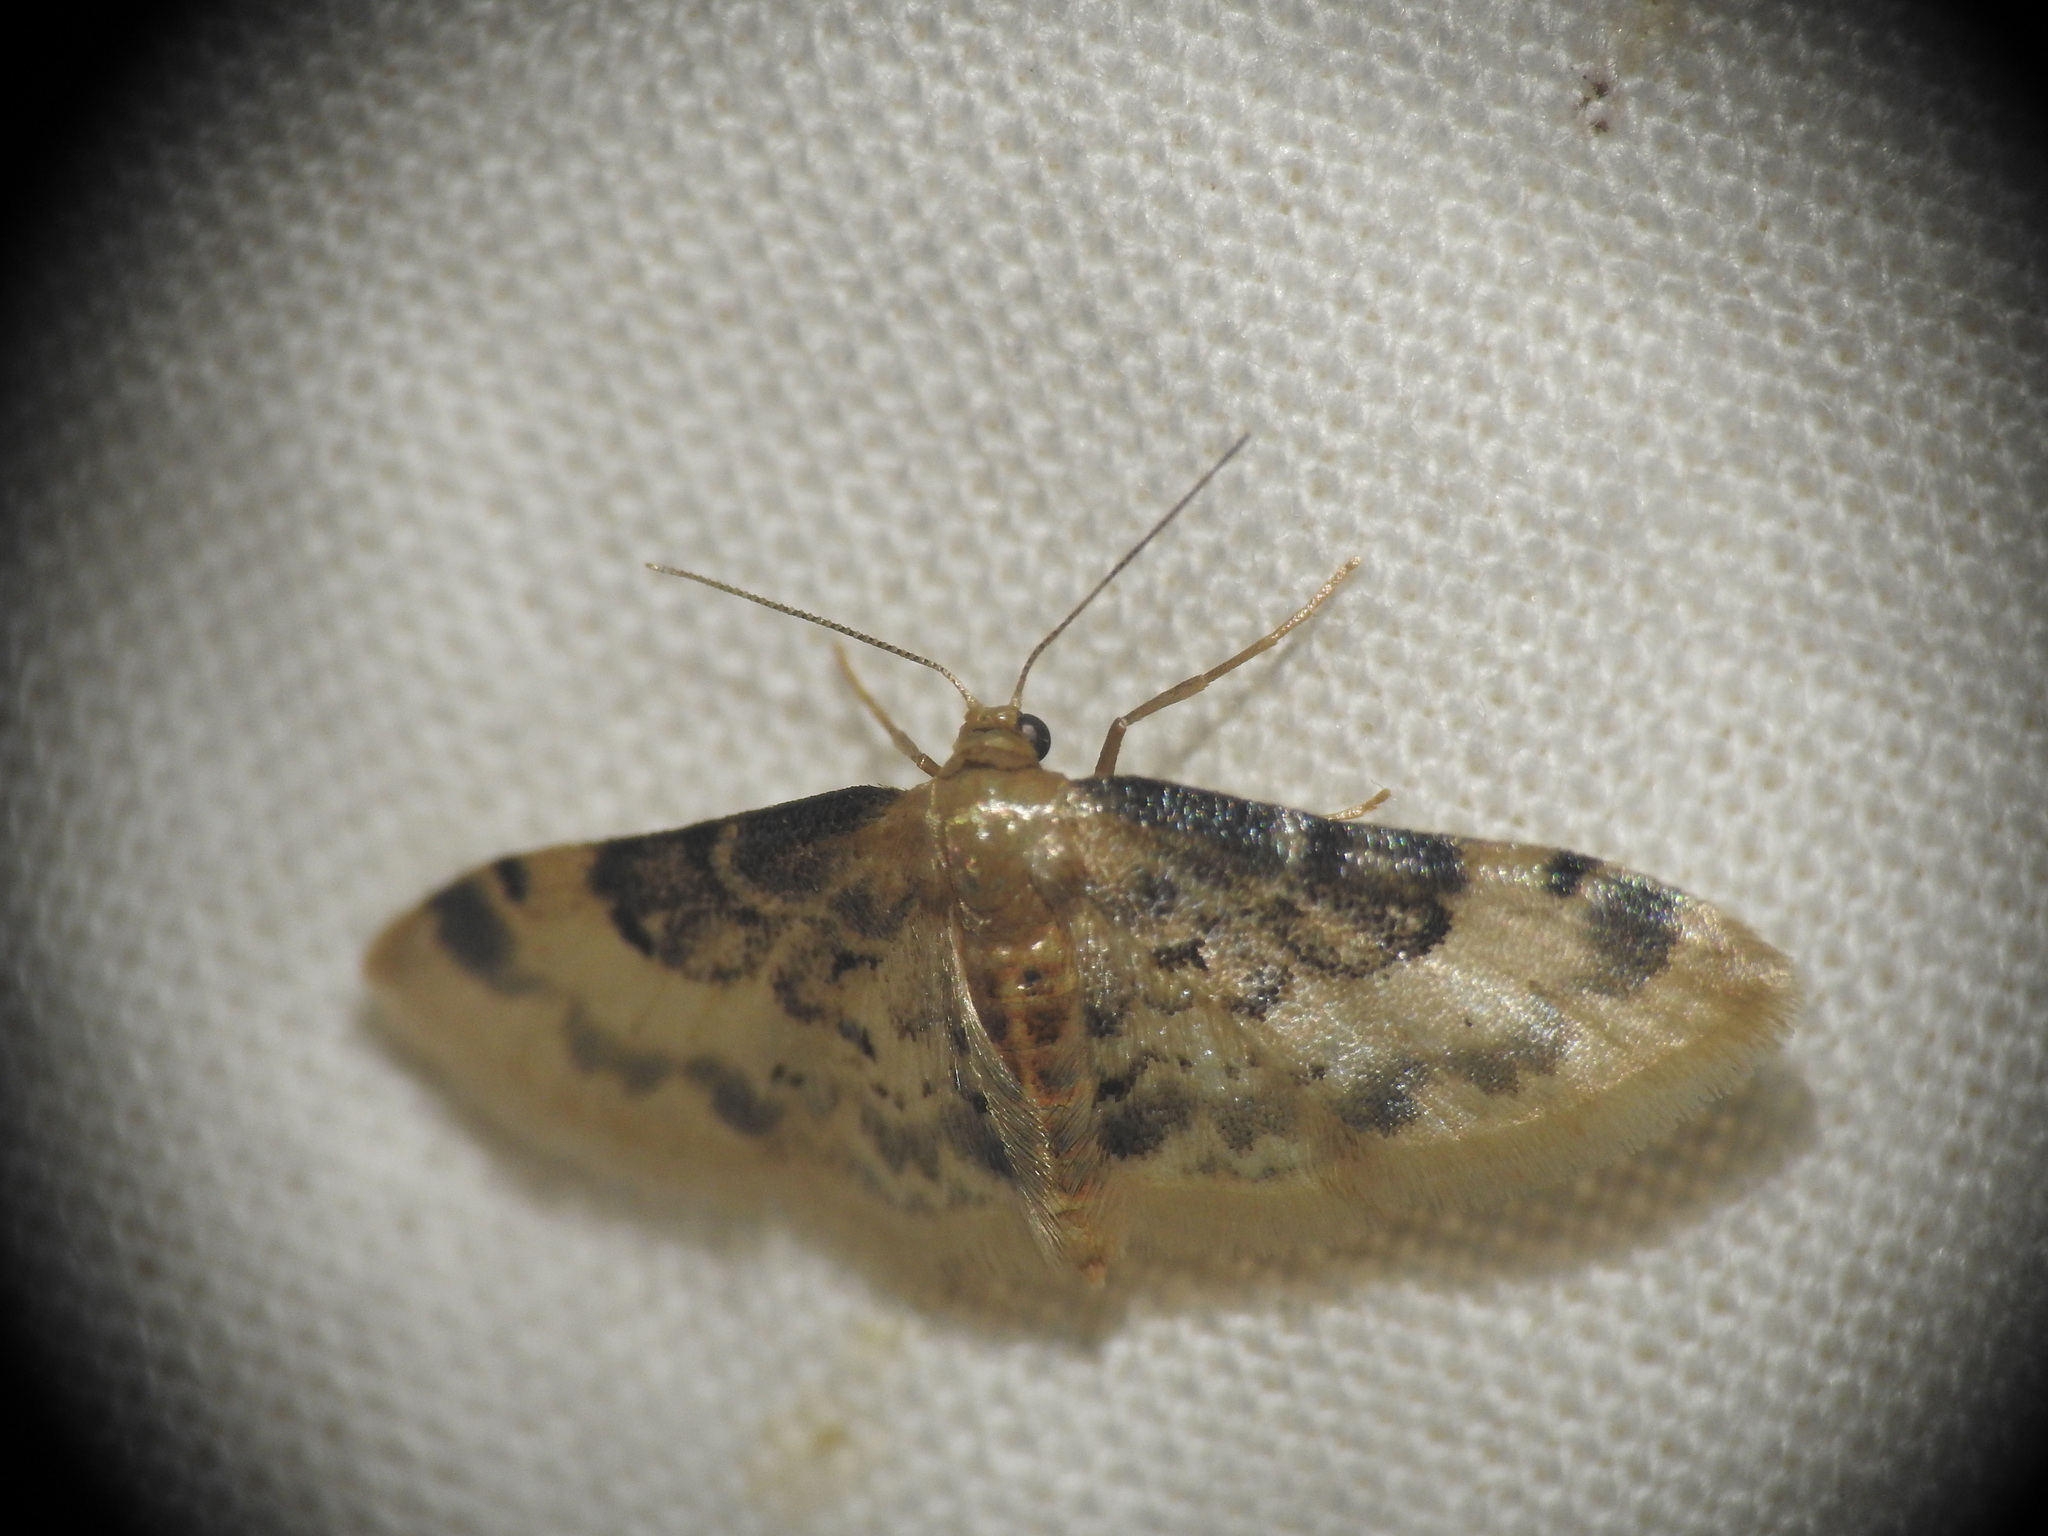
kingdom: Animalia
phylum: Arthropoda
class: Insecta
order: Lepidoptera
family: Geometridae
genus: Idaea
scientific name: Idaea filicata
